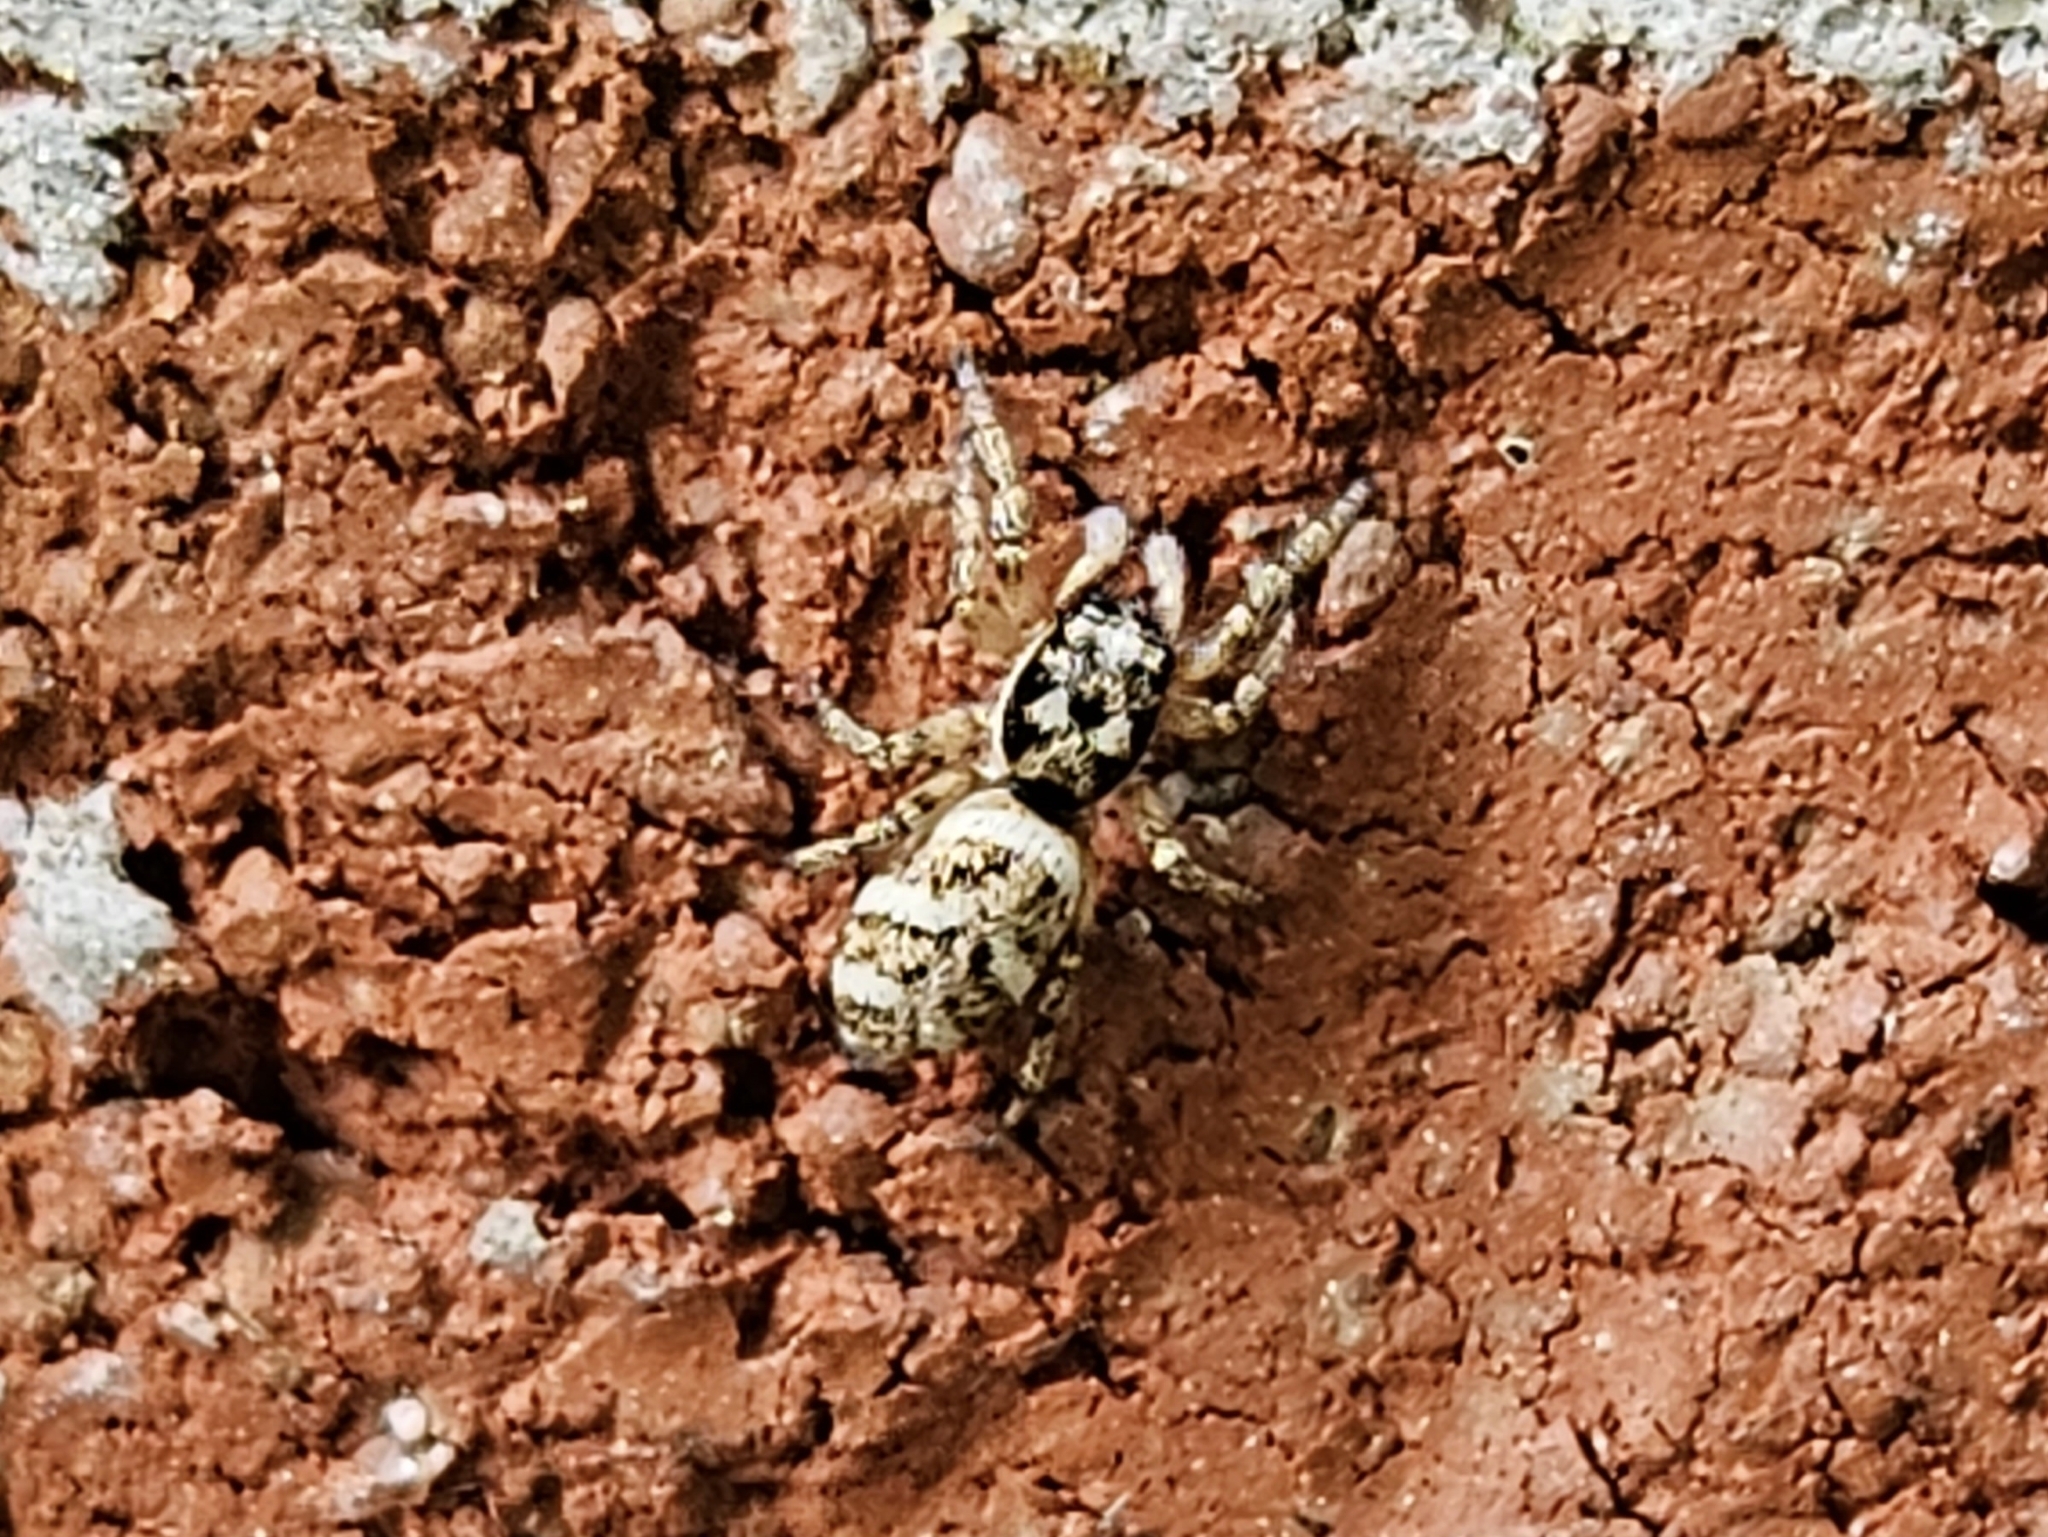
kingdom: Animalia
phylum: Arthropoda
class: Arachnida
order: Araneae
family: Salticidae
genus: Salticus
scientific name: Salticus scenicus
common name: Zebra jumper
